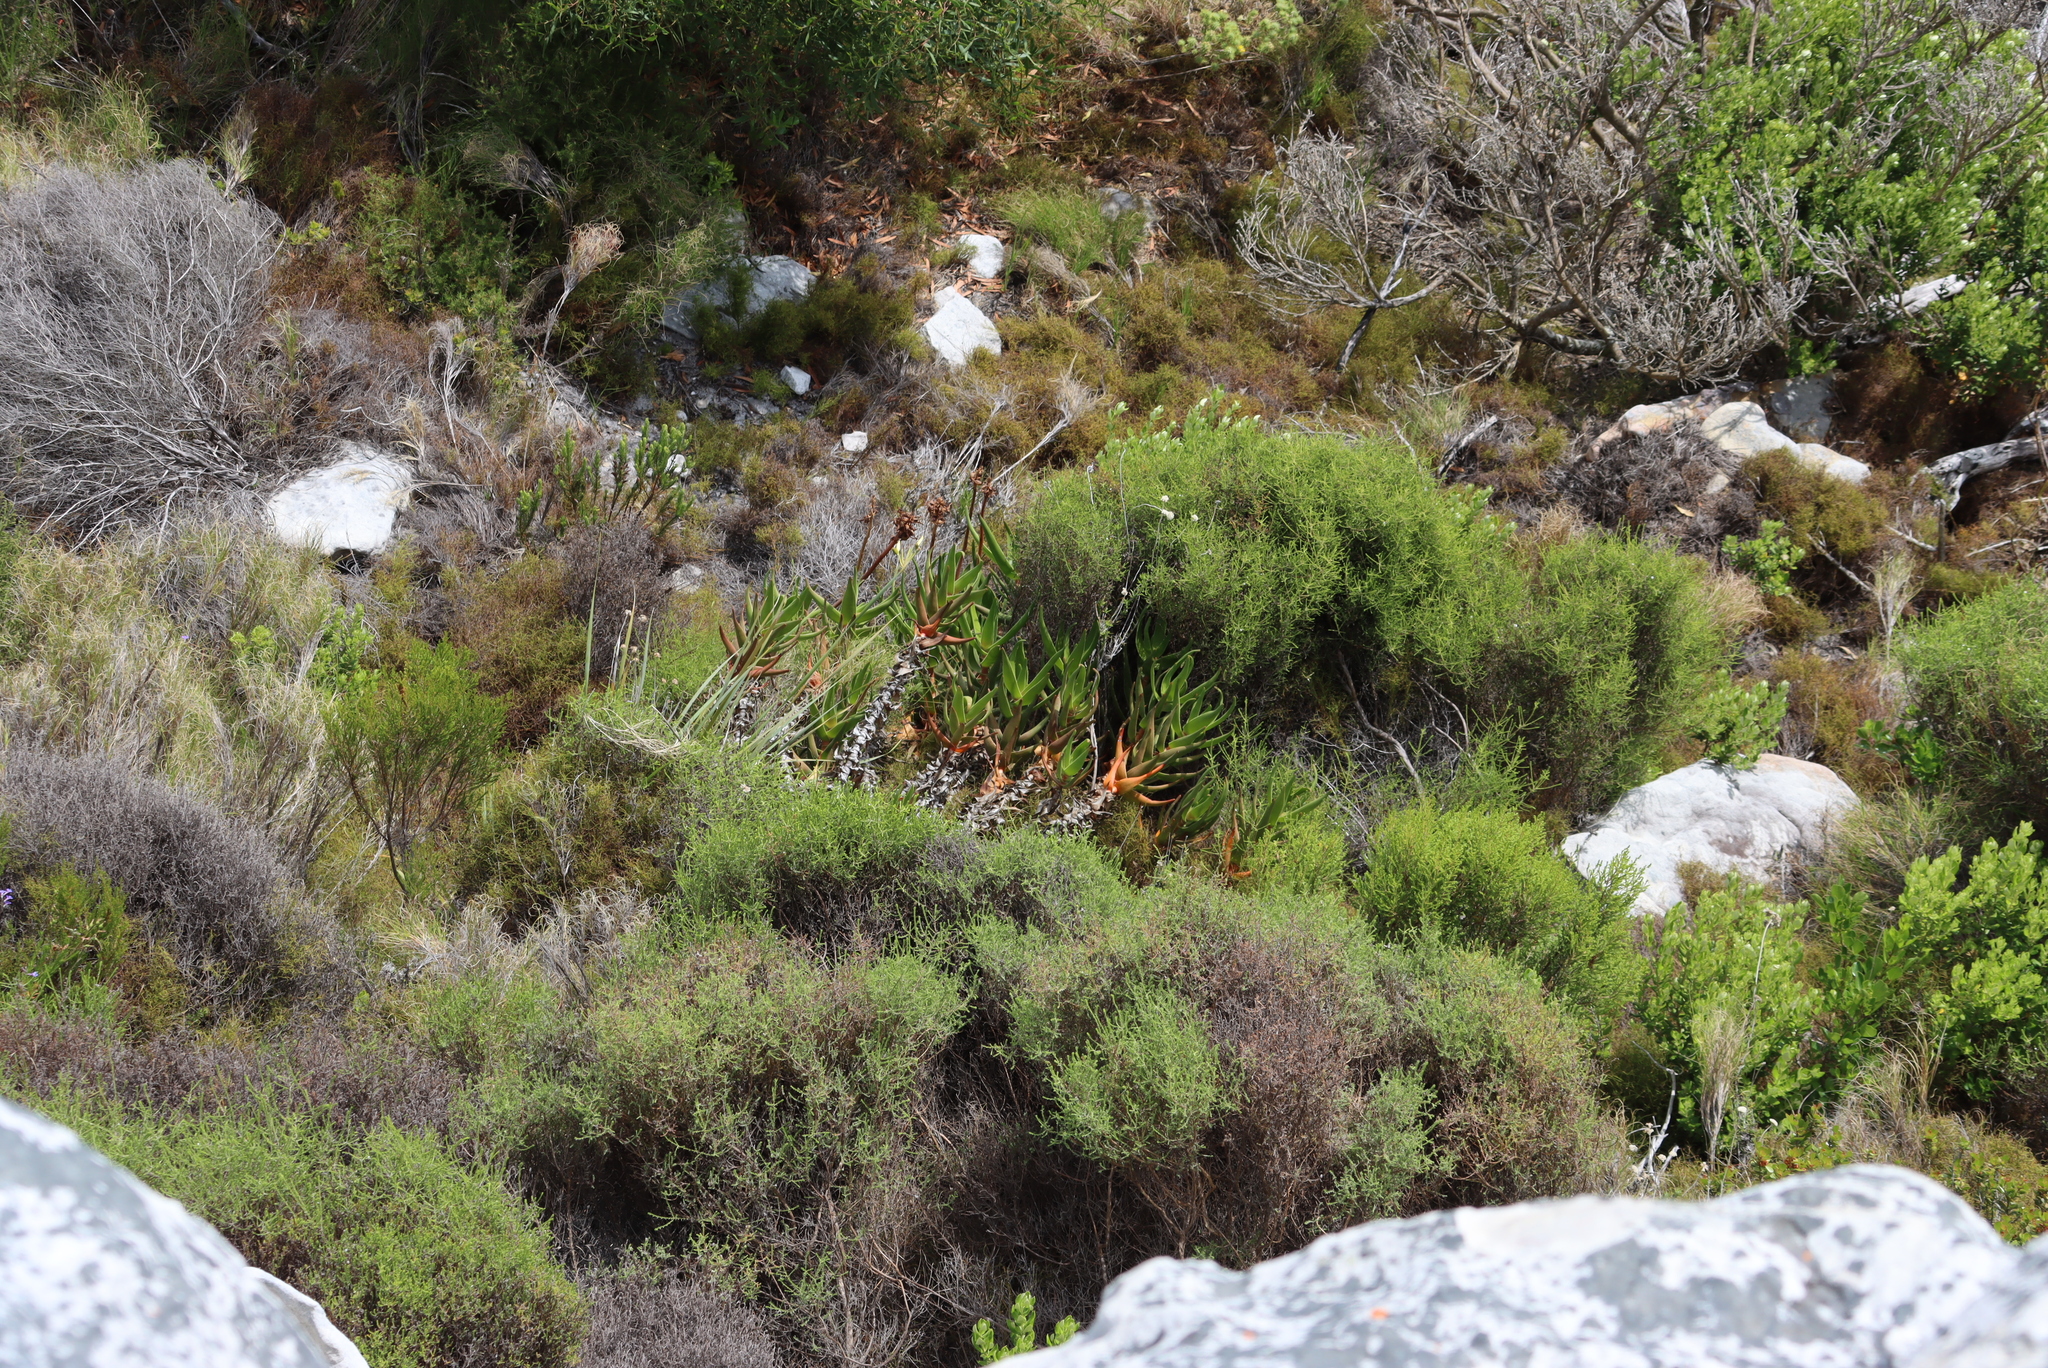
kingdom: Plantae
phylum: Tracheophyta
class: Liliopsida
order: Asparagales
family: Asphodelaceae
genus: Aloiampelos
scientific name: Aloiampelos commixta
